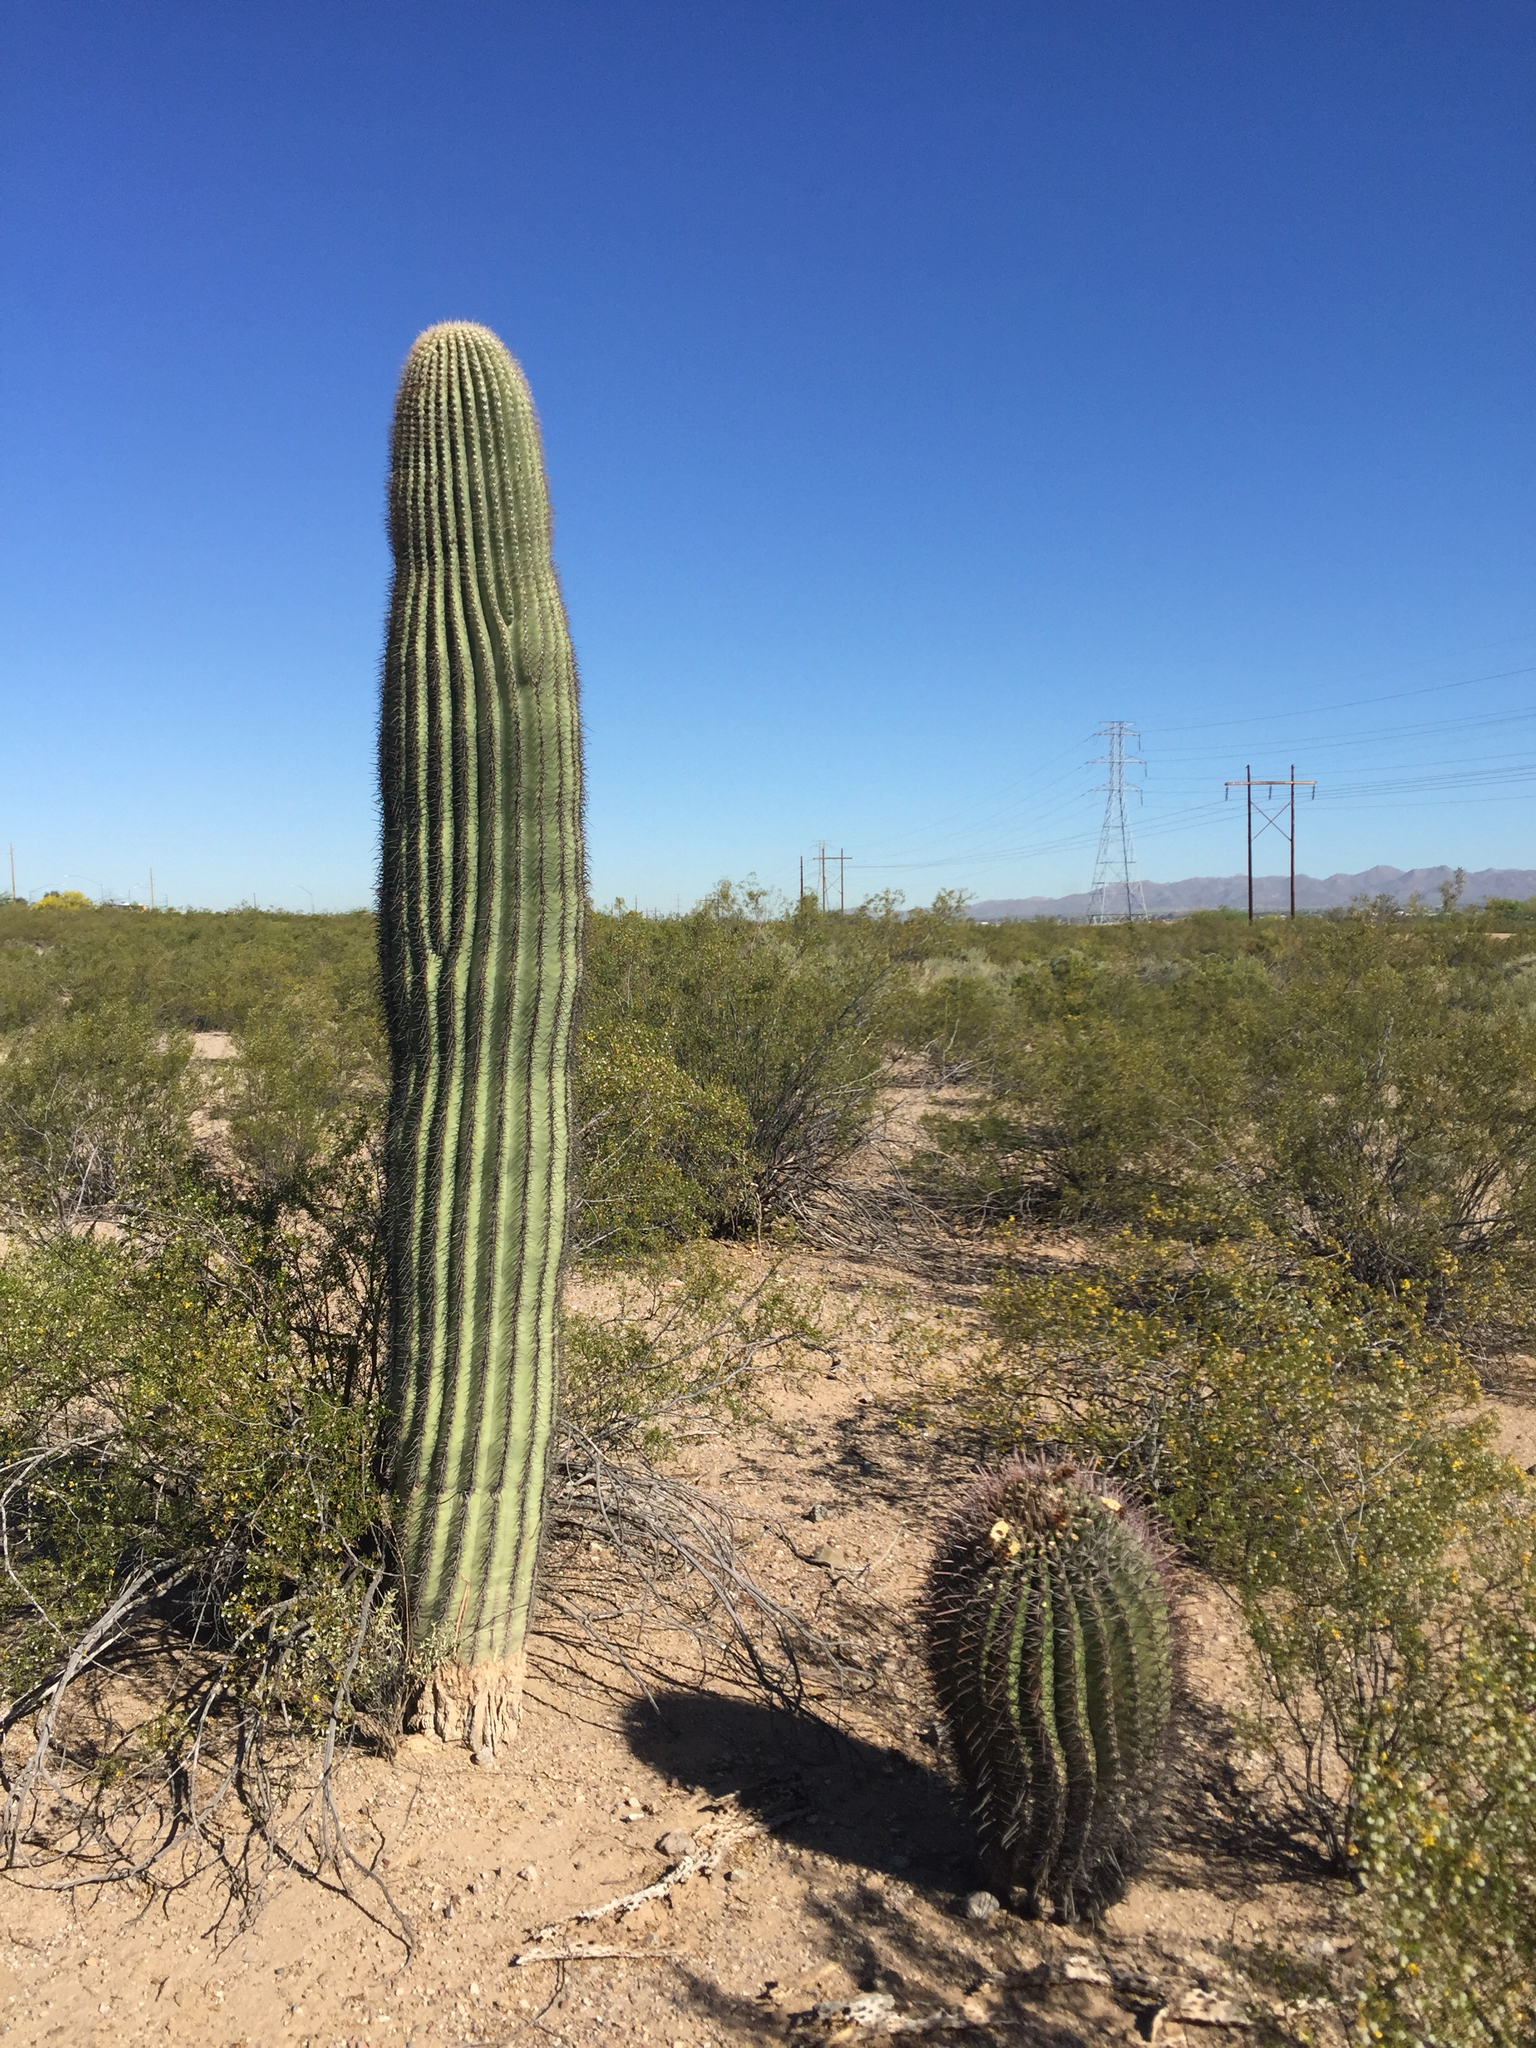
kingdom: Plantae
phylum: Tracheophyta
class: Magnoliopsida
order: Caryophyllales
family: Cactaceae
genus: Ferocactus
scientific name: Ferocactus wislizeni
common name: Candy barrel cactus
